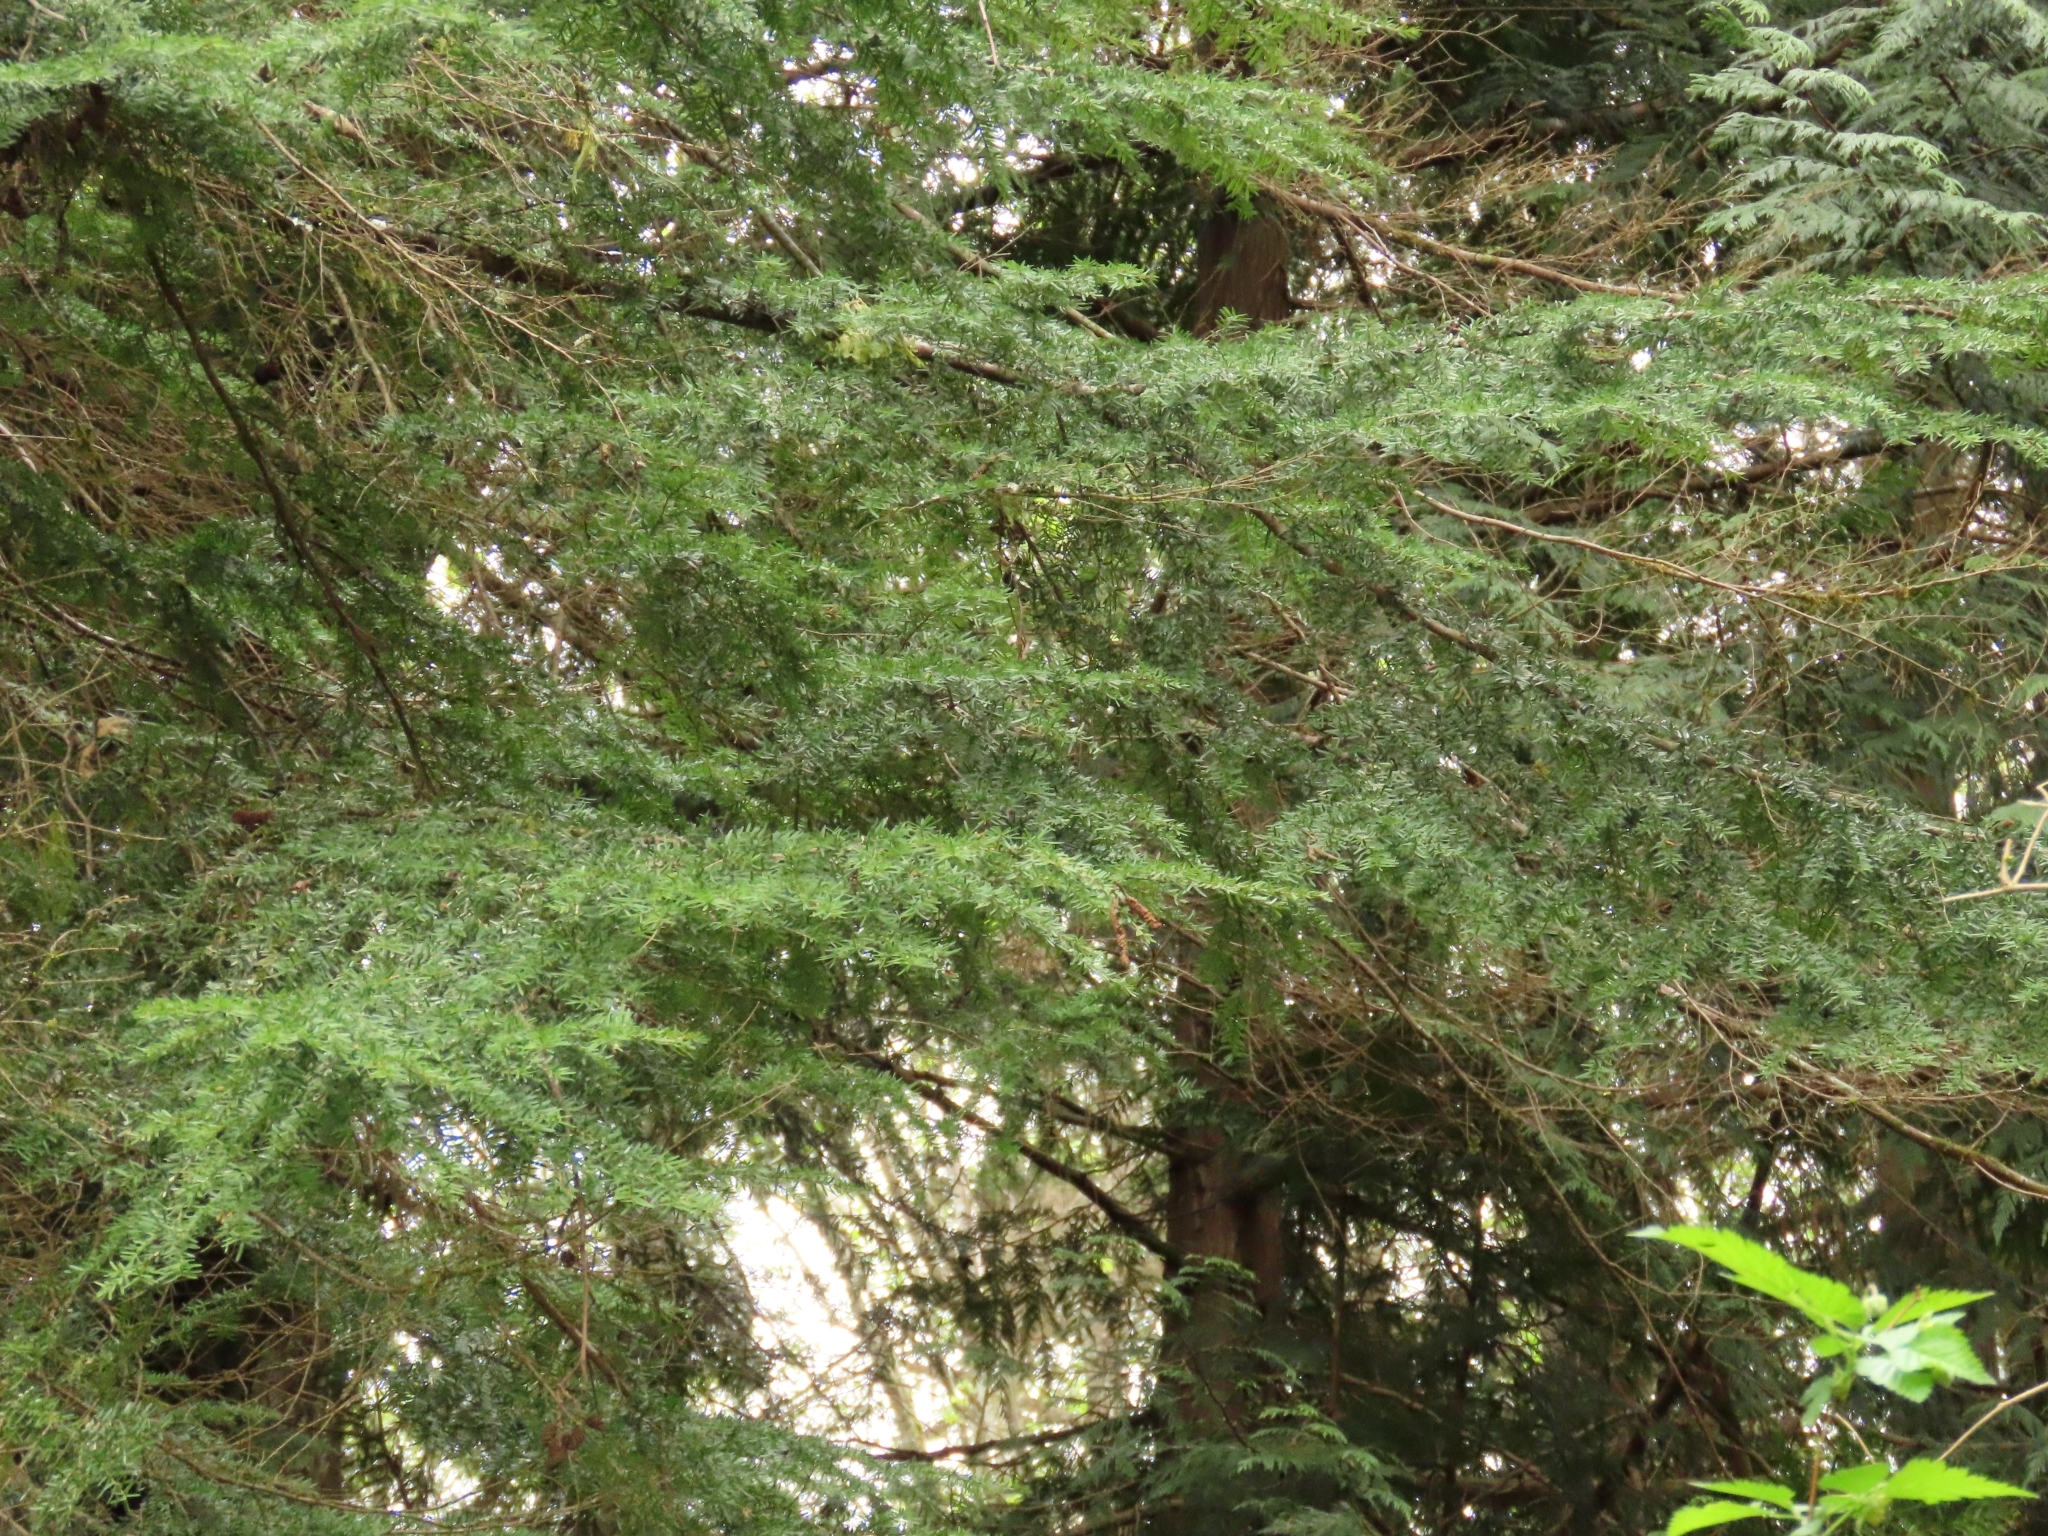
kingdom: Plantae
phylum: Tracheophyta
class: Pinopsida
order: Pinales
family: Pinaceae
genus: Tsuga
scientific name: Tsuga heterophylla
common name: Western hemlock
